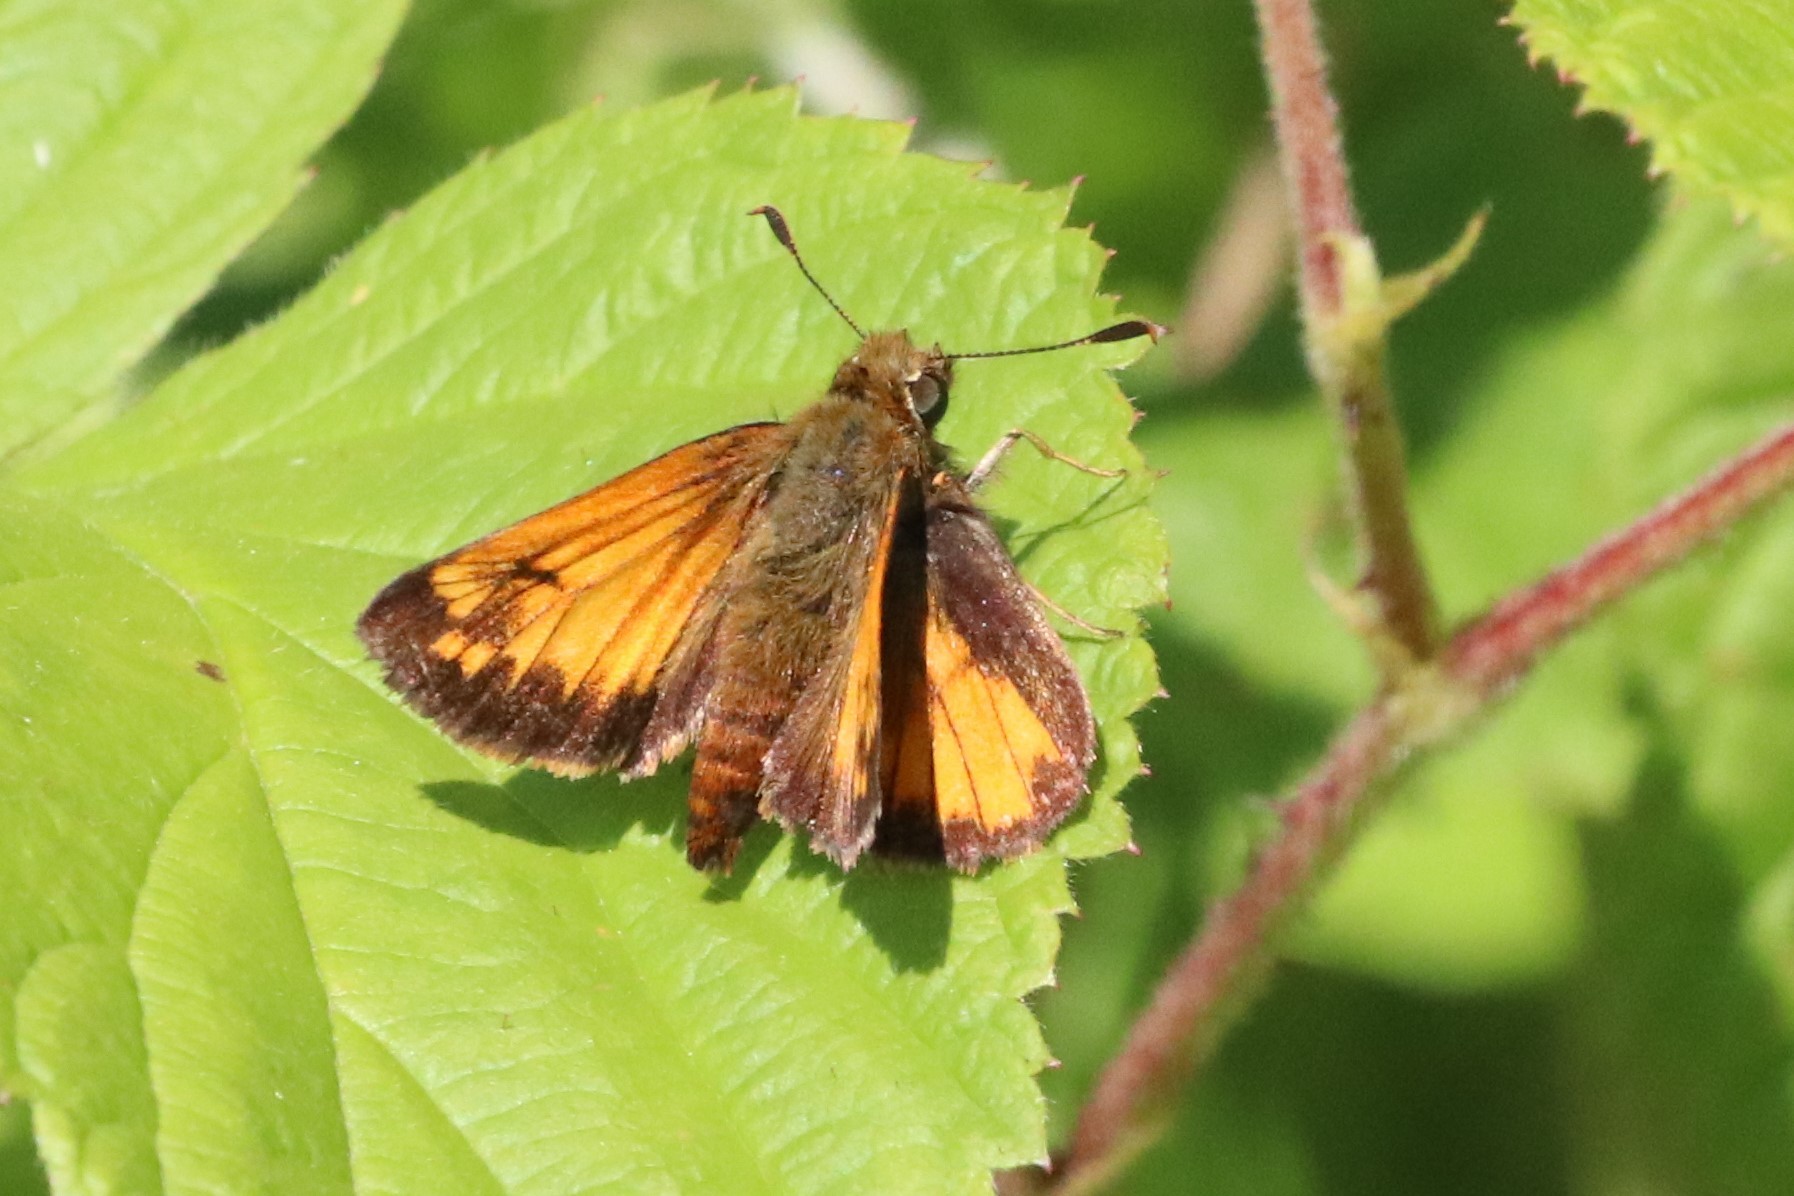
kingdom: Animalia
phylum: Arthropoda
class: Insecta
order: Lepidoptera
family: Hesperiidae
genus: Lon
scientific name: Lon hobomok
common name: Hobomok skipper
